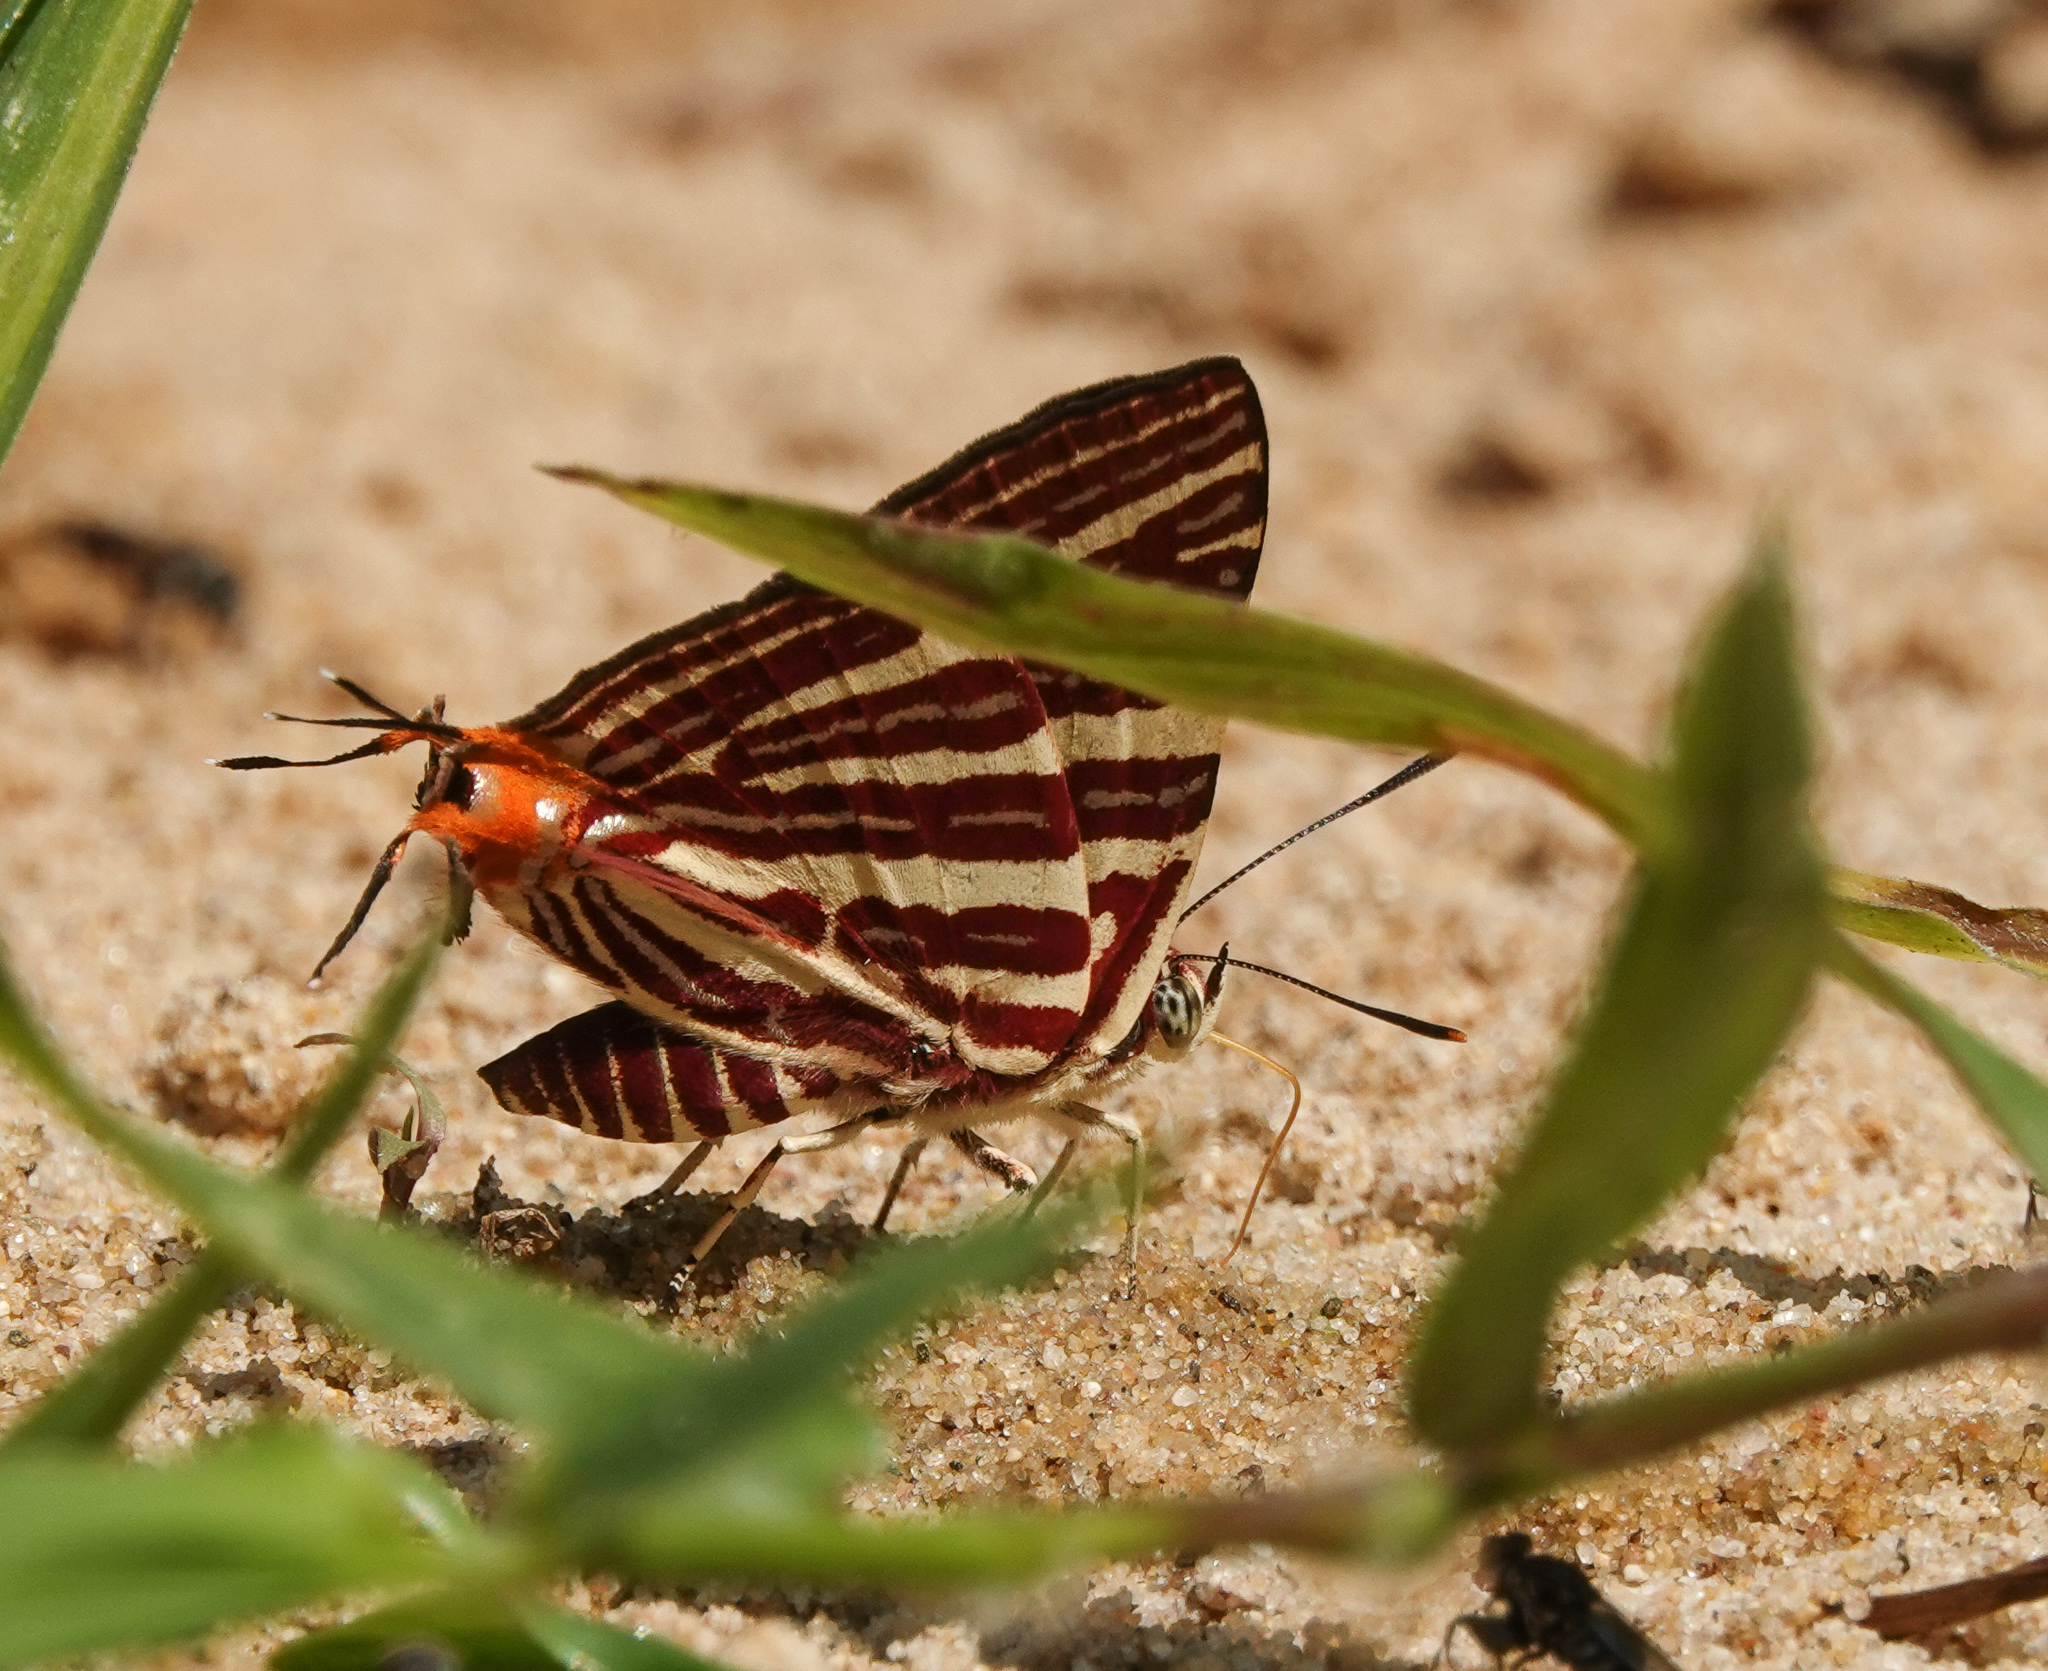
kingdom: Animalia
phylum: Arthropoda
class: Insecta
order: Lepidoptera
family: Lycaenidae
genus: Cigaritis
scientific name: Cigaritis lohita
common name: Long-banded silverline
